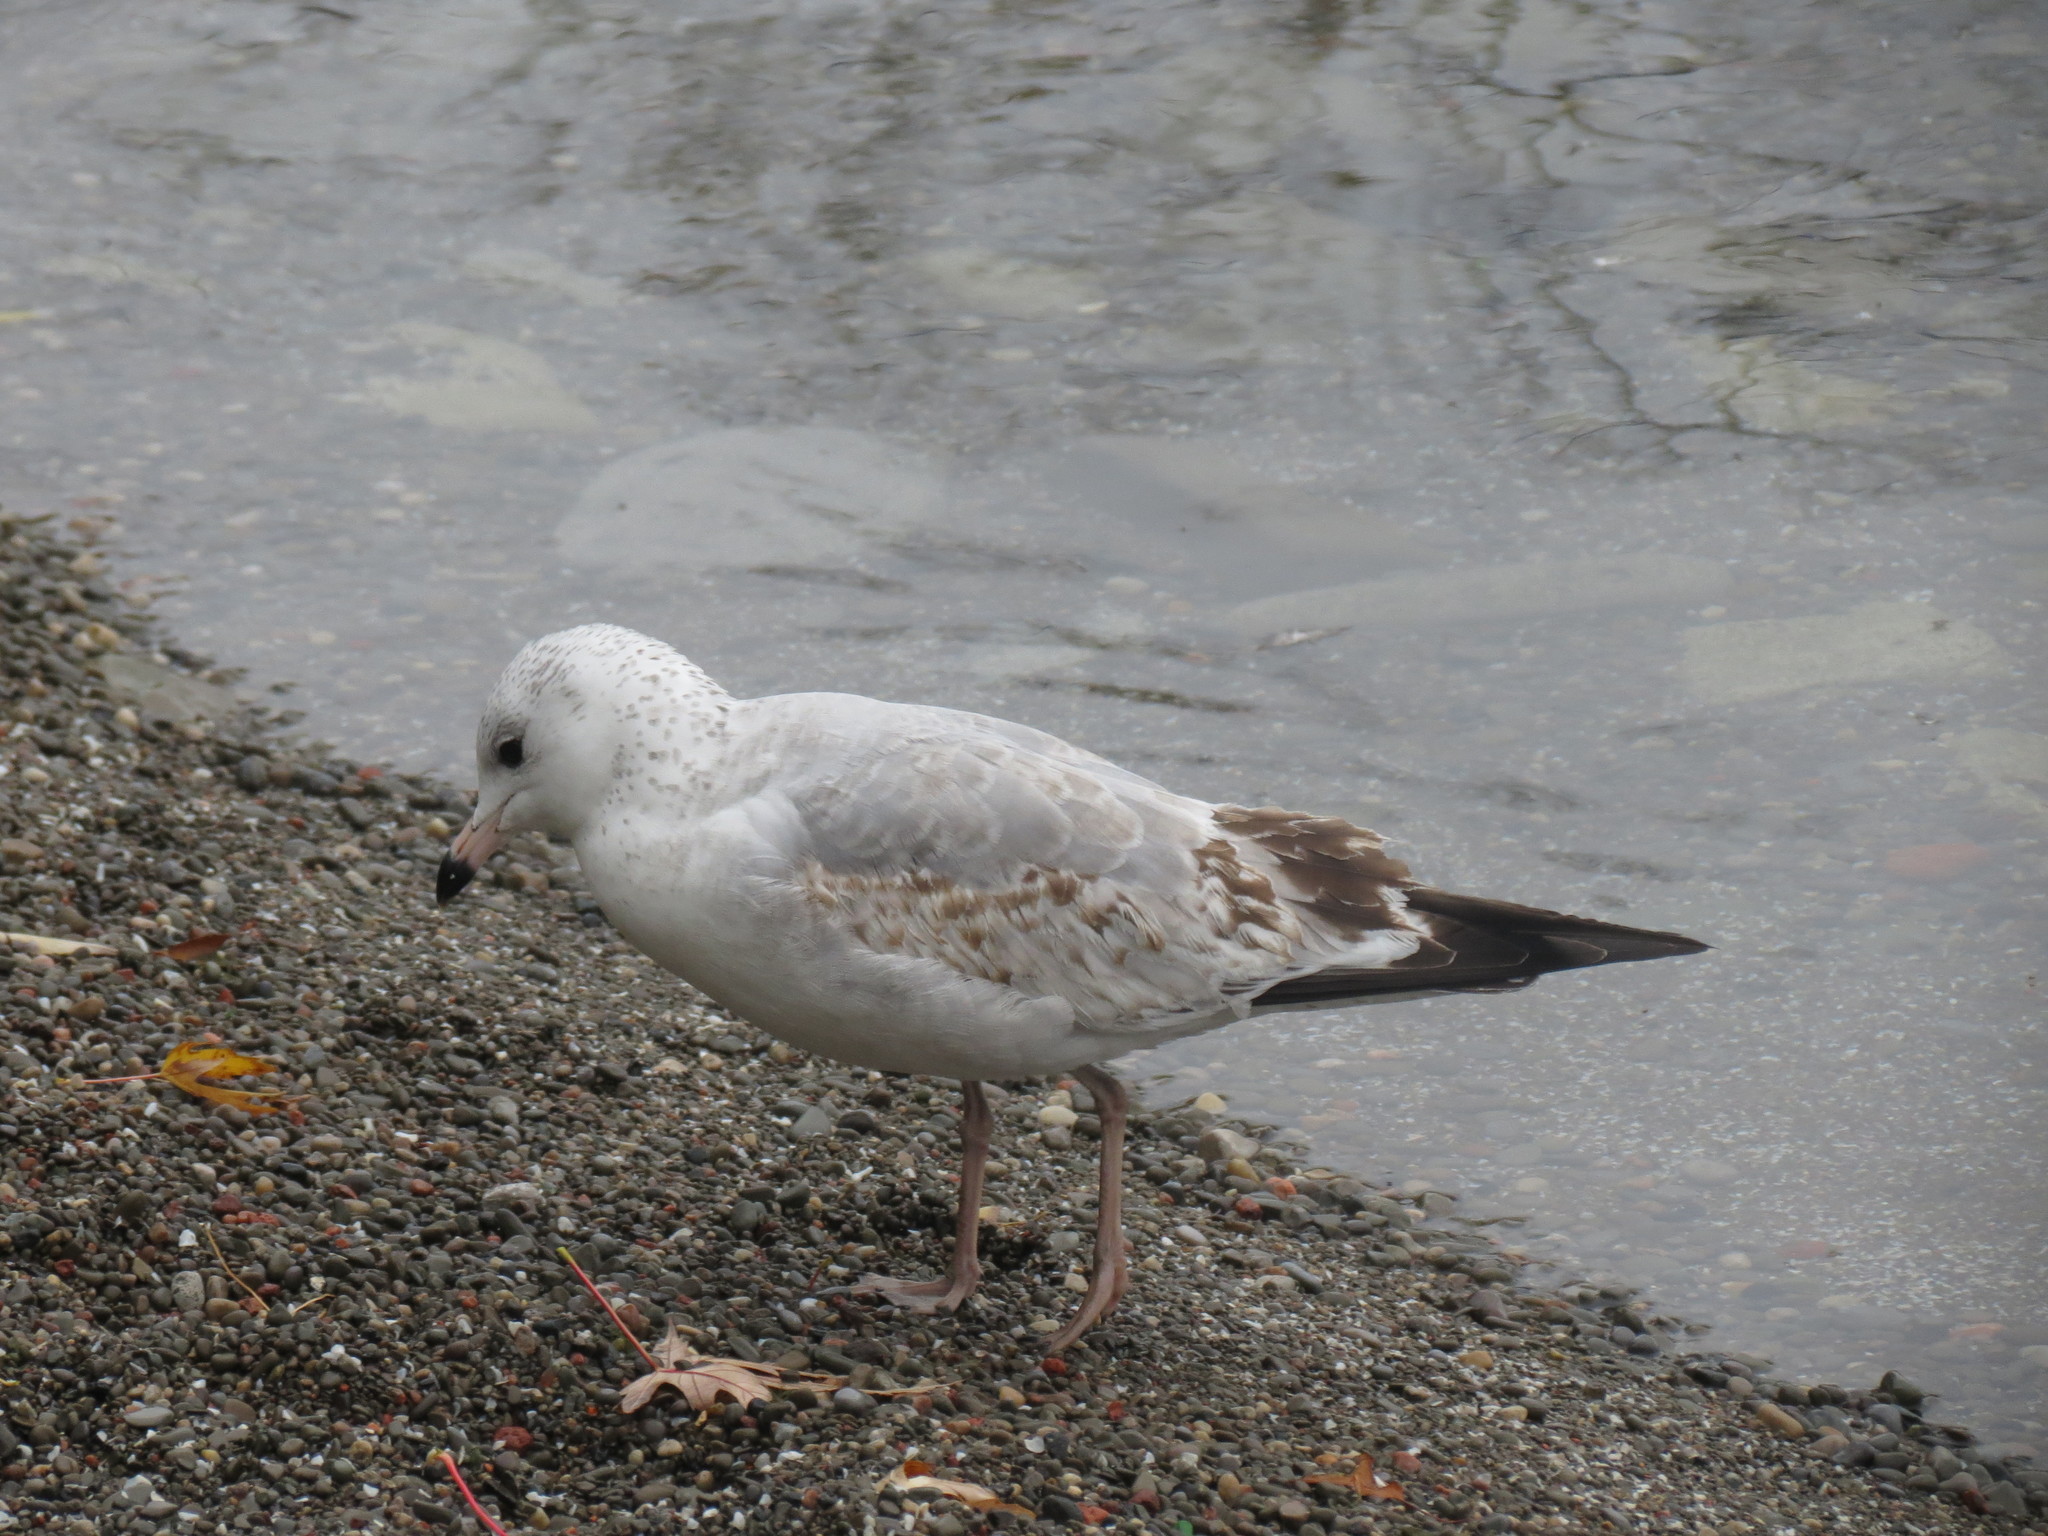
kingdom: Animalia
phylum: Chordata
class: Aves
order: Charadriiformes
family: Laridae
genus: Larus
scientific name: Larus delawarensis
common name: Ring-billed gull
